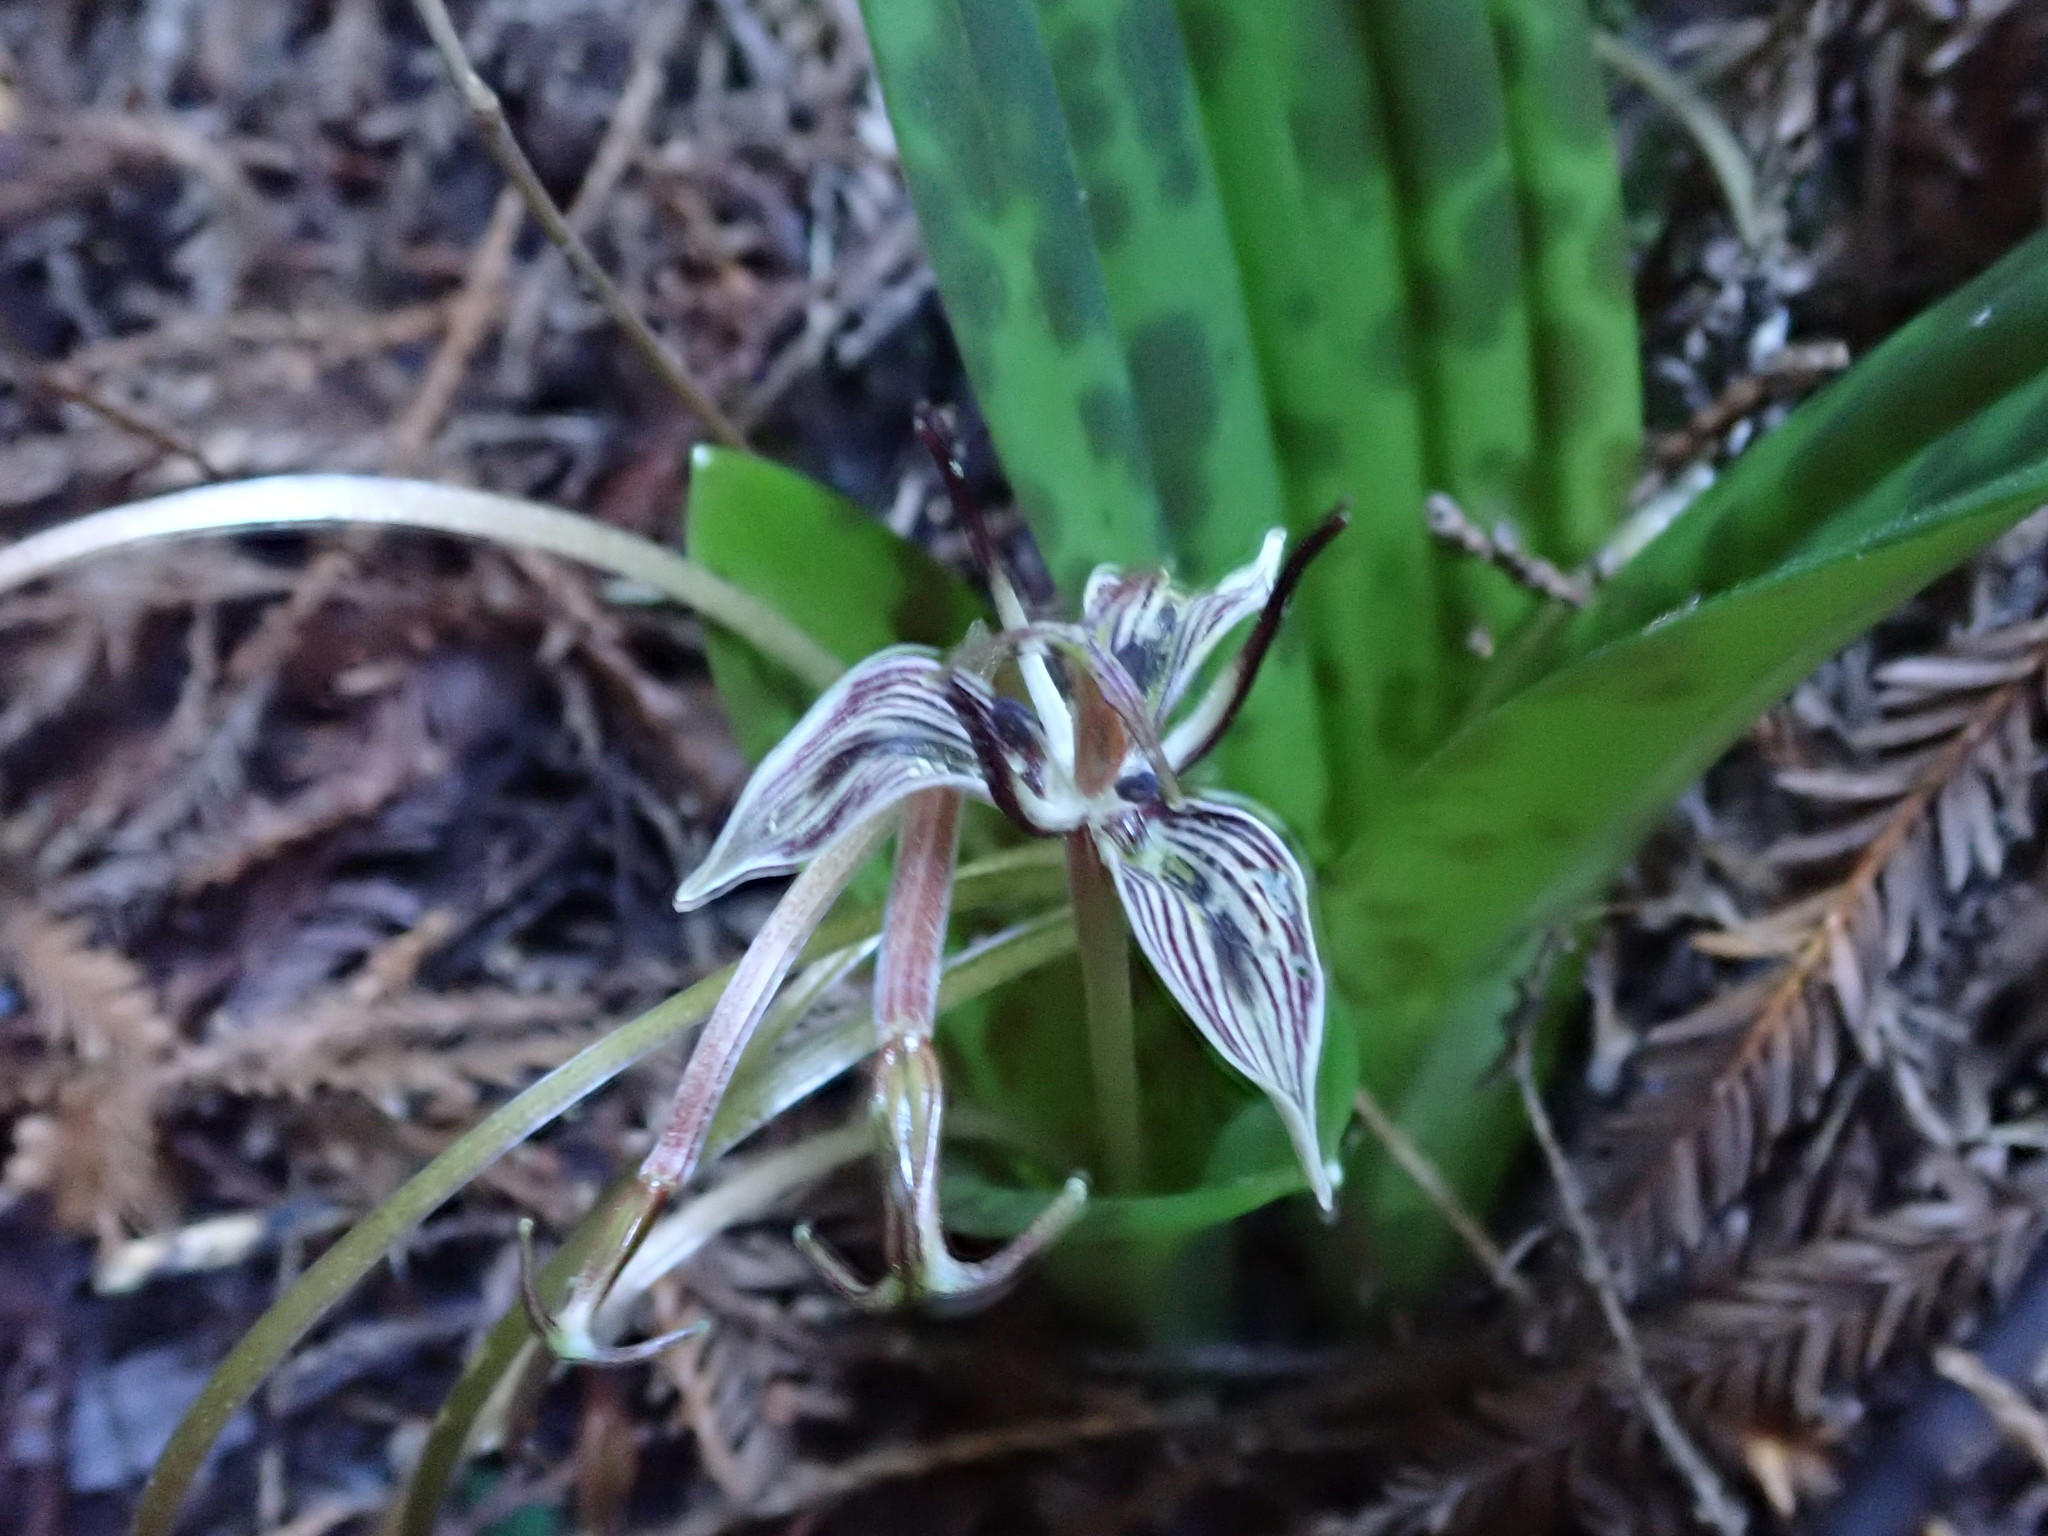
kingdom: Plantae
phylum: Tracheophyta
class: Liliopsida
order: Liliales
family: Liliaceae
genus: Scoliopus
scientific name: Scoliopus bigelovii
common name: Foetid adder's-tongue
